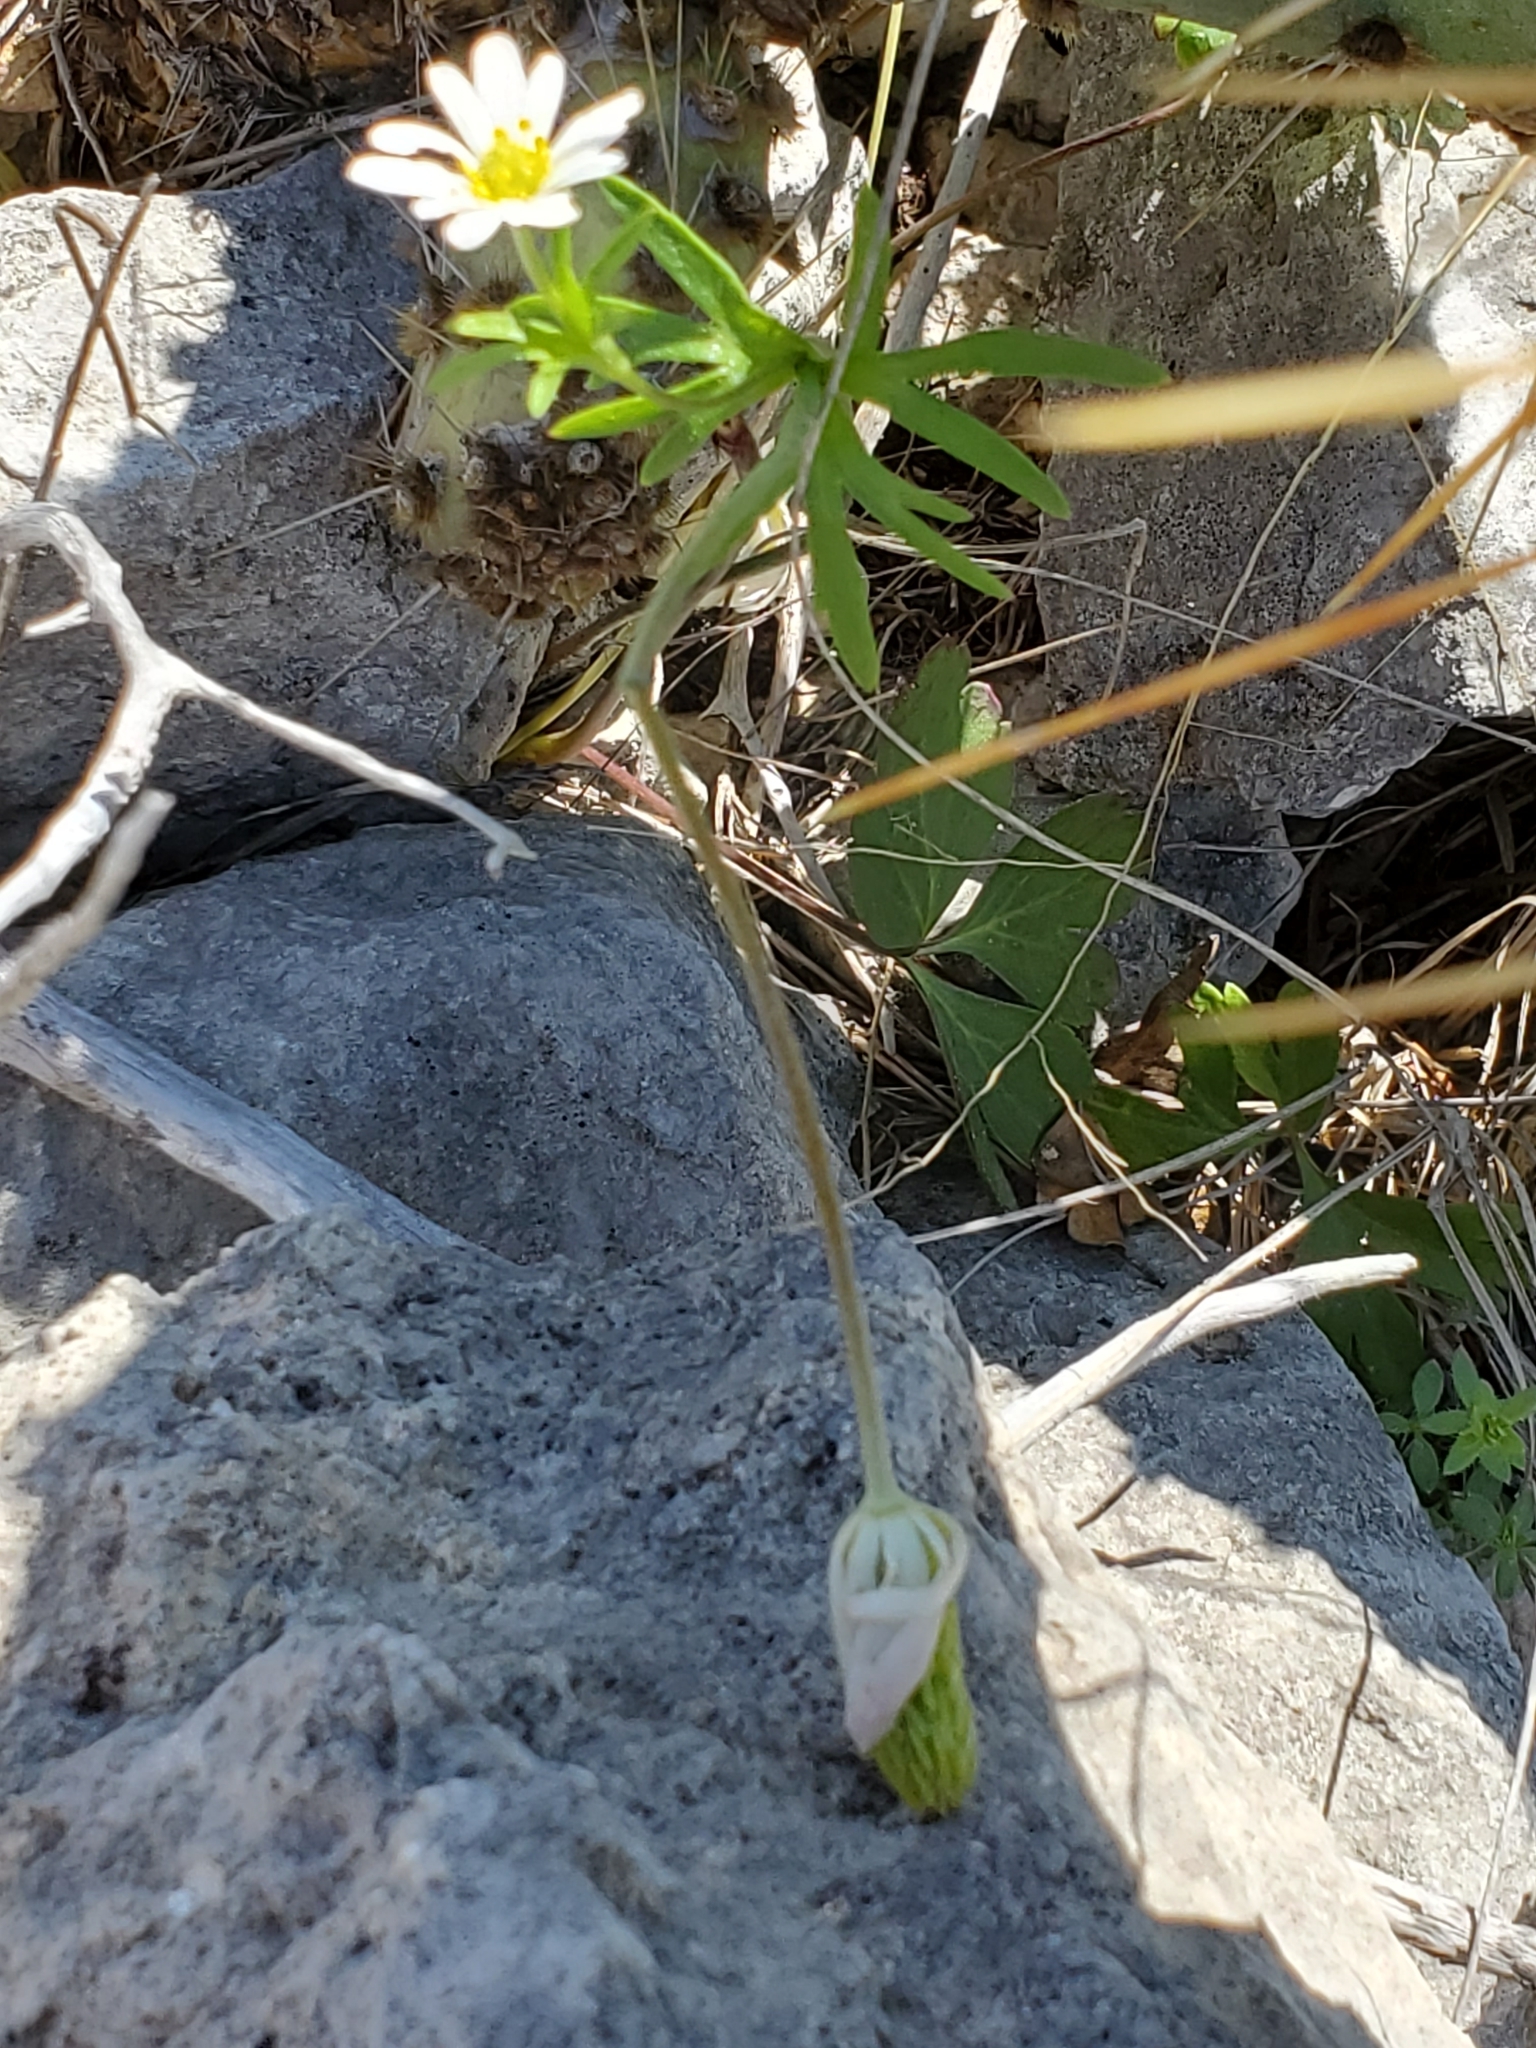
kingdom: Plantae
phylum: Tracheophyta
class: Magnoliopsida
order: Ranunculales
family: Ranunculaceae
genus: Anemone
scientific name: Anemone edwardsiana
